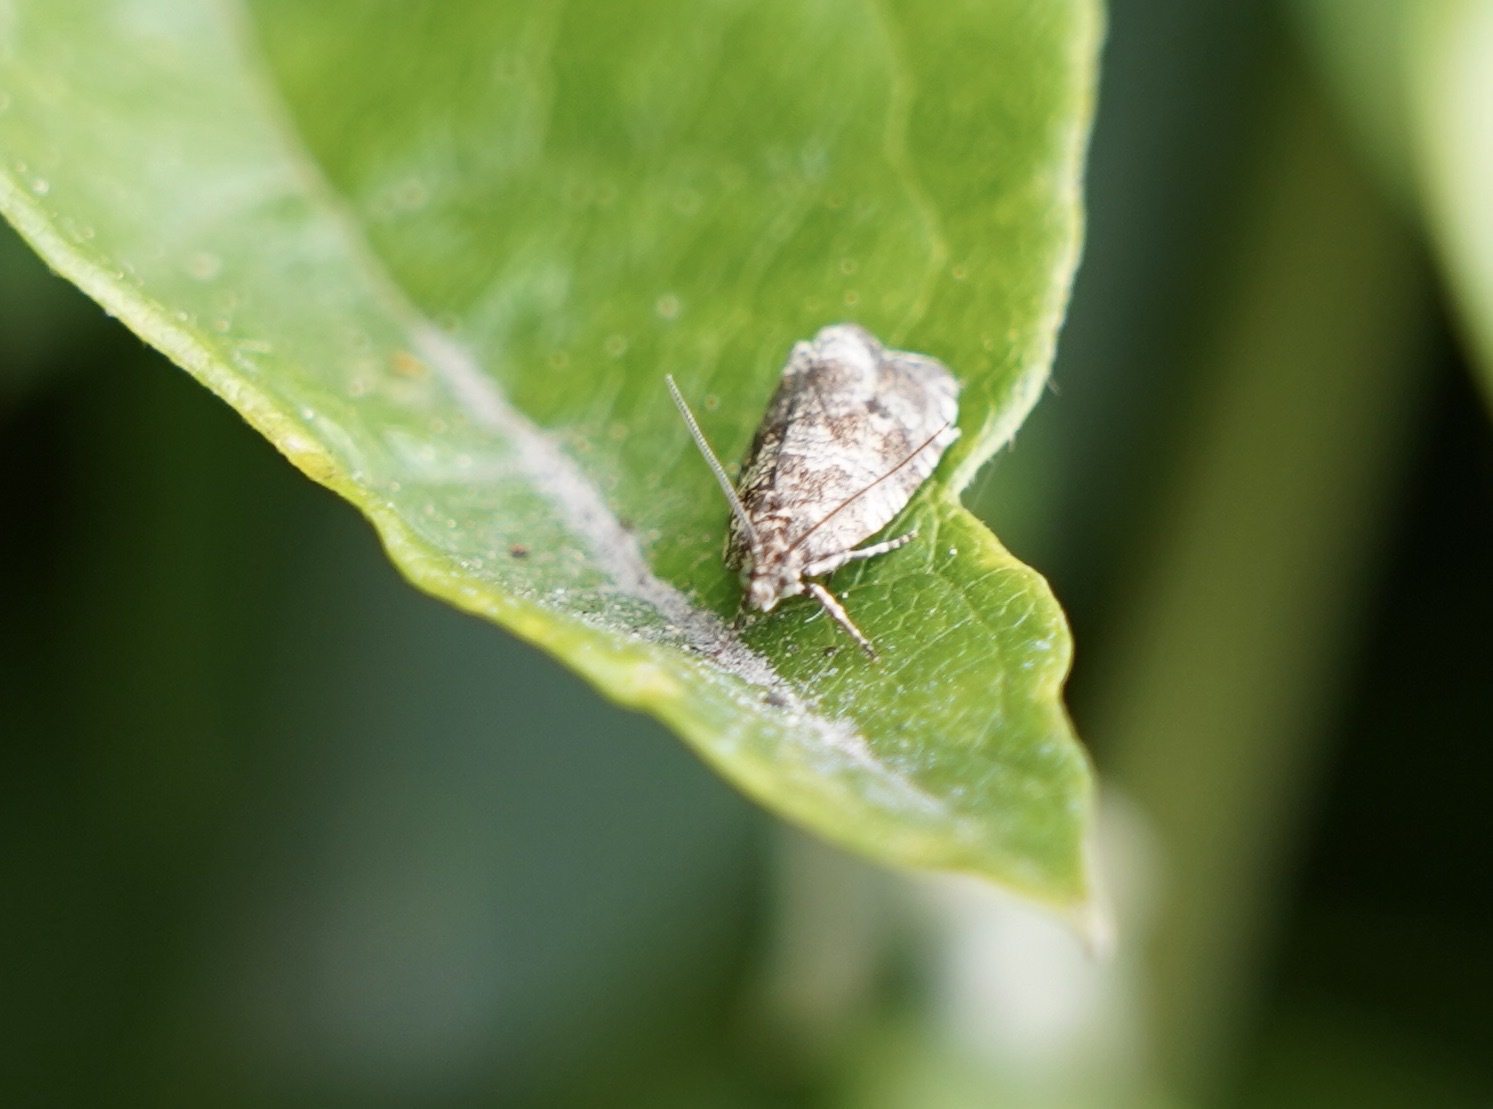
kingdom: Animalia
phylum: Arthropoda
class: Insecta
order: Lepidoptera
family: Tortricidae
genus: Syricoris
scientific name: Syricoris lacunana
